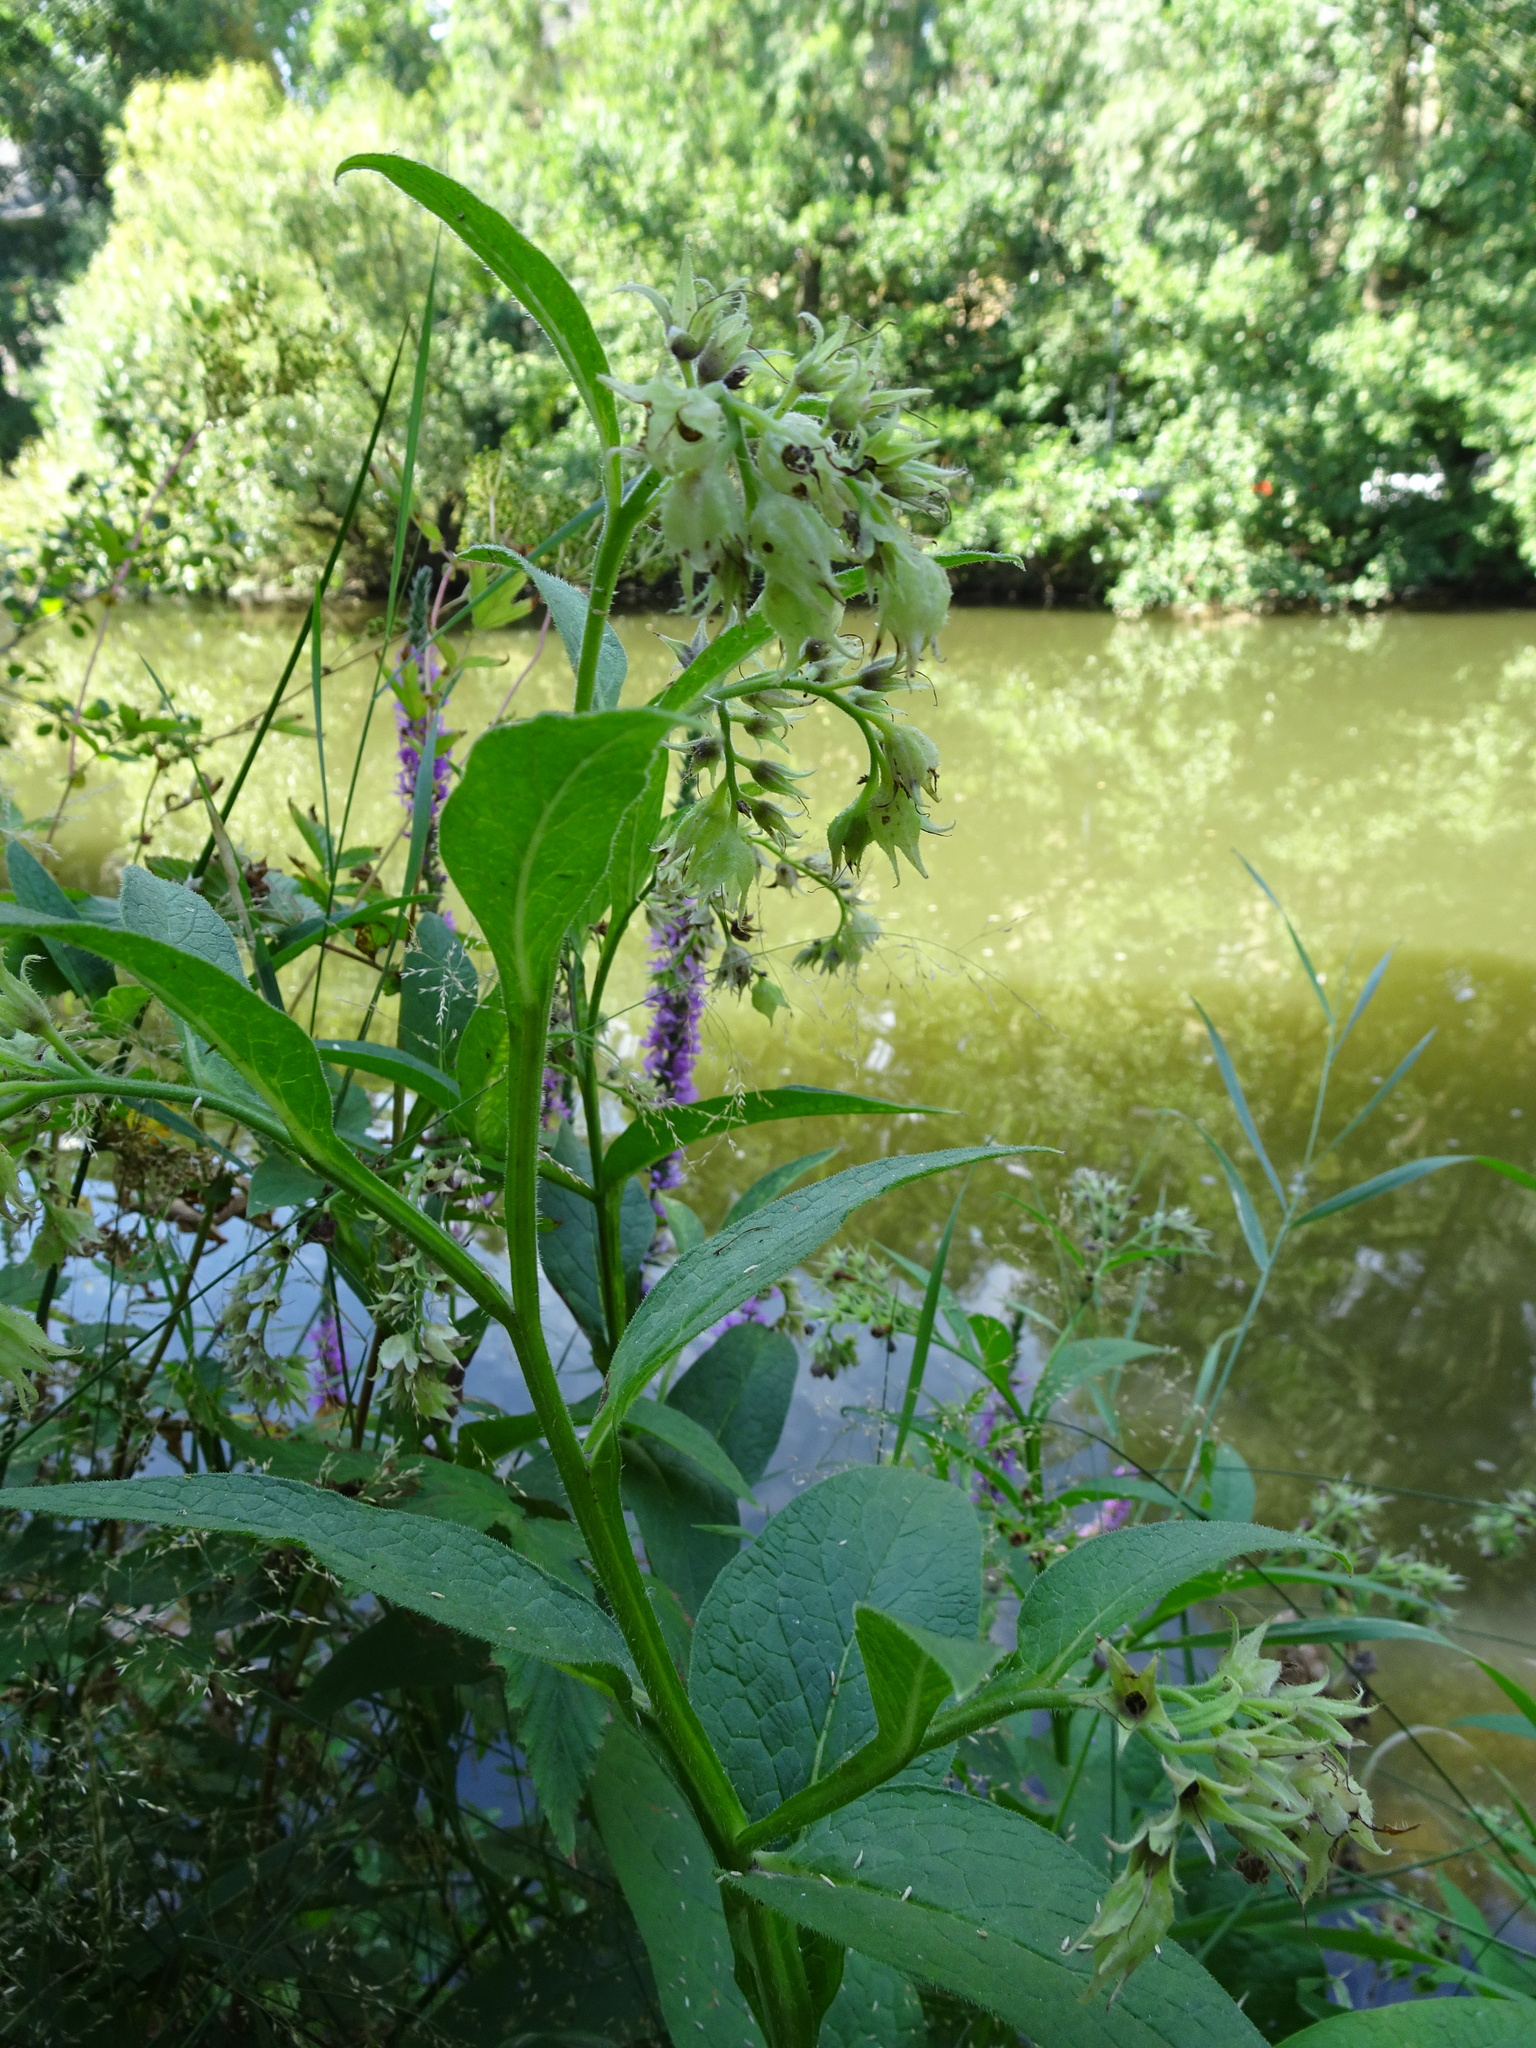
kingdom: Plantae
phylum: Tracheophyta
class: Magnoliopsida
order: Boraginales
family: Boraginaceae
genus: Symphytum
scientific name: Symphytum officinale
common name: Common comfrey
